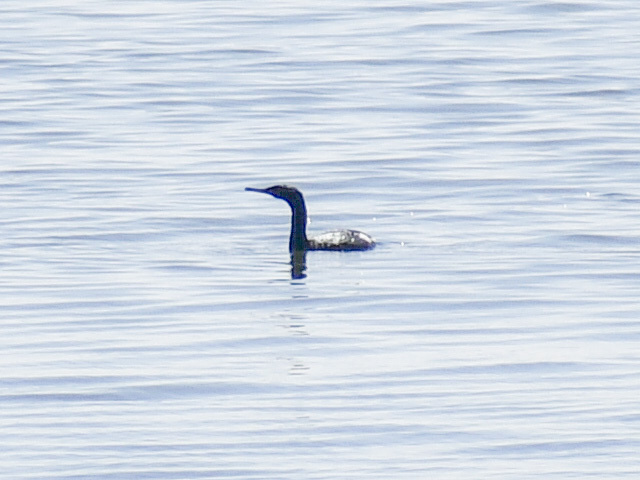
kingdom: Animalia
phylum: Chordata
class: Aves
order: Suliformes
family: Phalacrocoracidae
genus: Phalacrocorax
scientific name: Phalacrocorax pelagicus
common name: Pelagic cormorant
